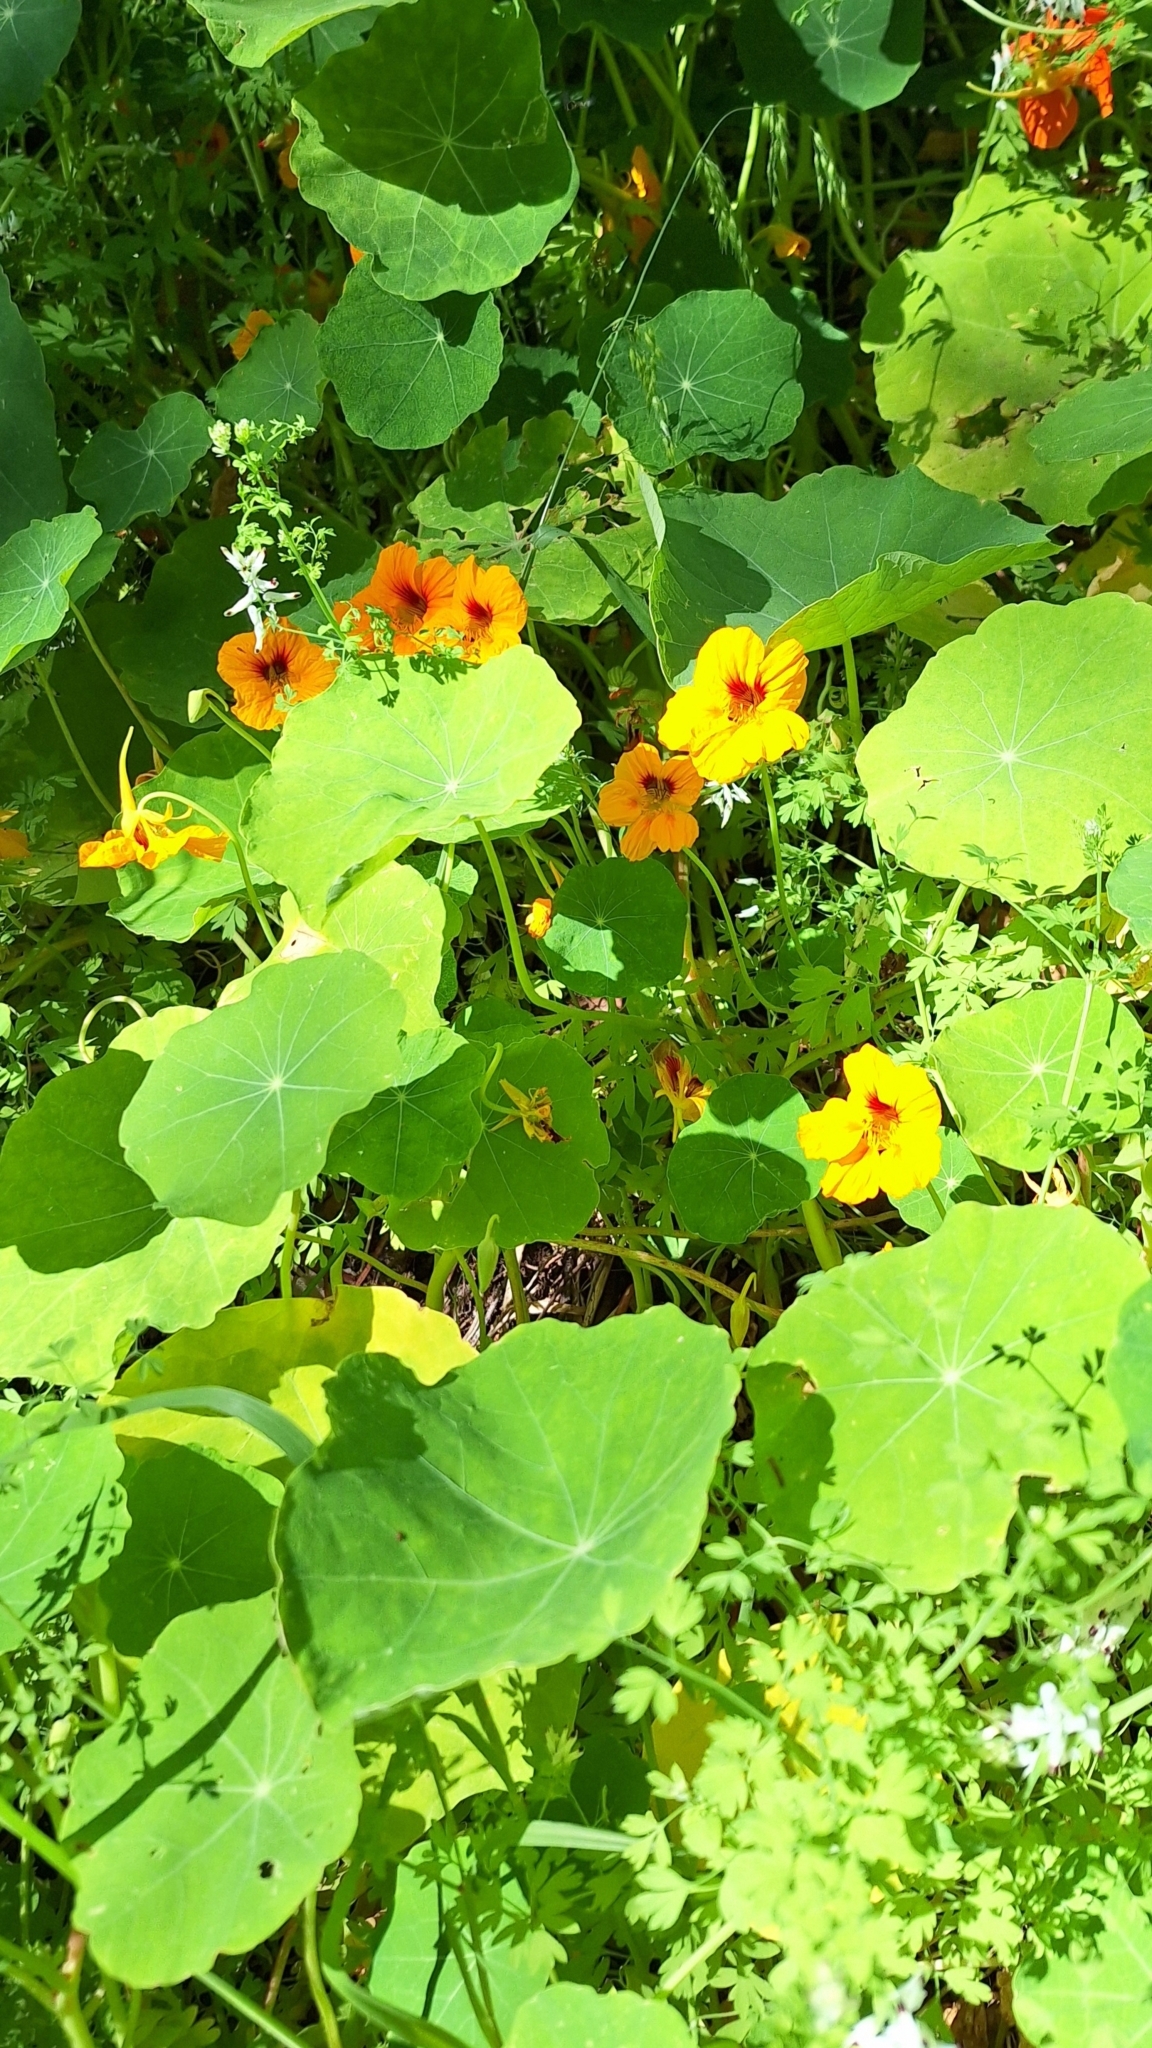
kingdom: Plantae
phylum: Tracheophyta
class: Magnoliopsida
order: Brassicales
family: Tropaeolaceae
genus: Tropaeolum
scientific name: Tropaeolum majus
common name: Nasturtium
